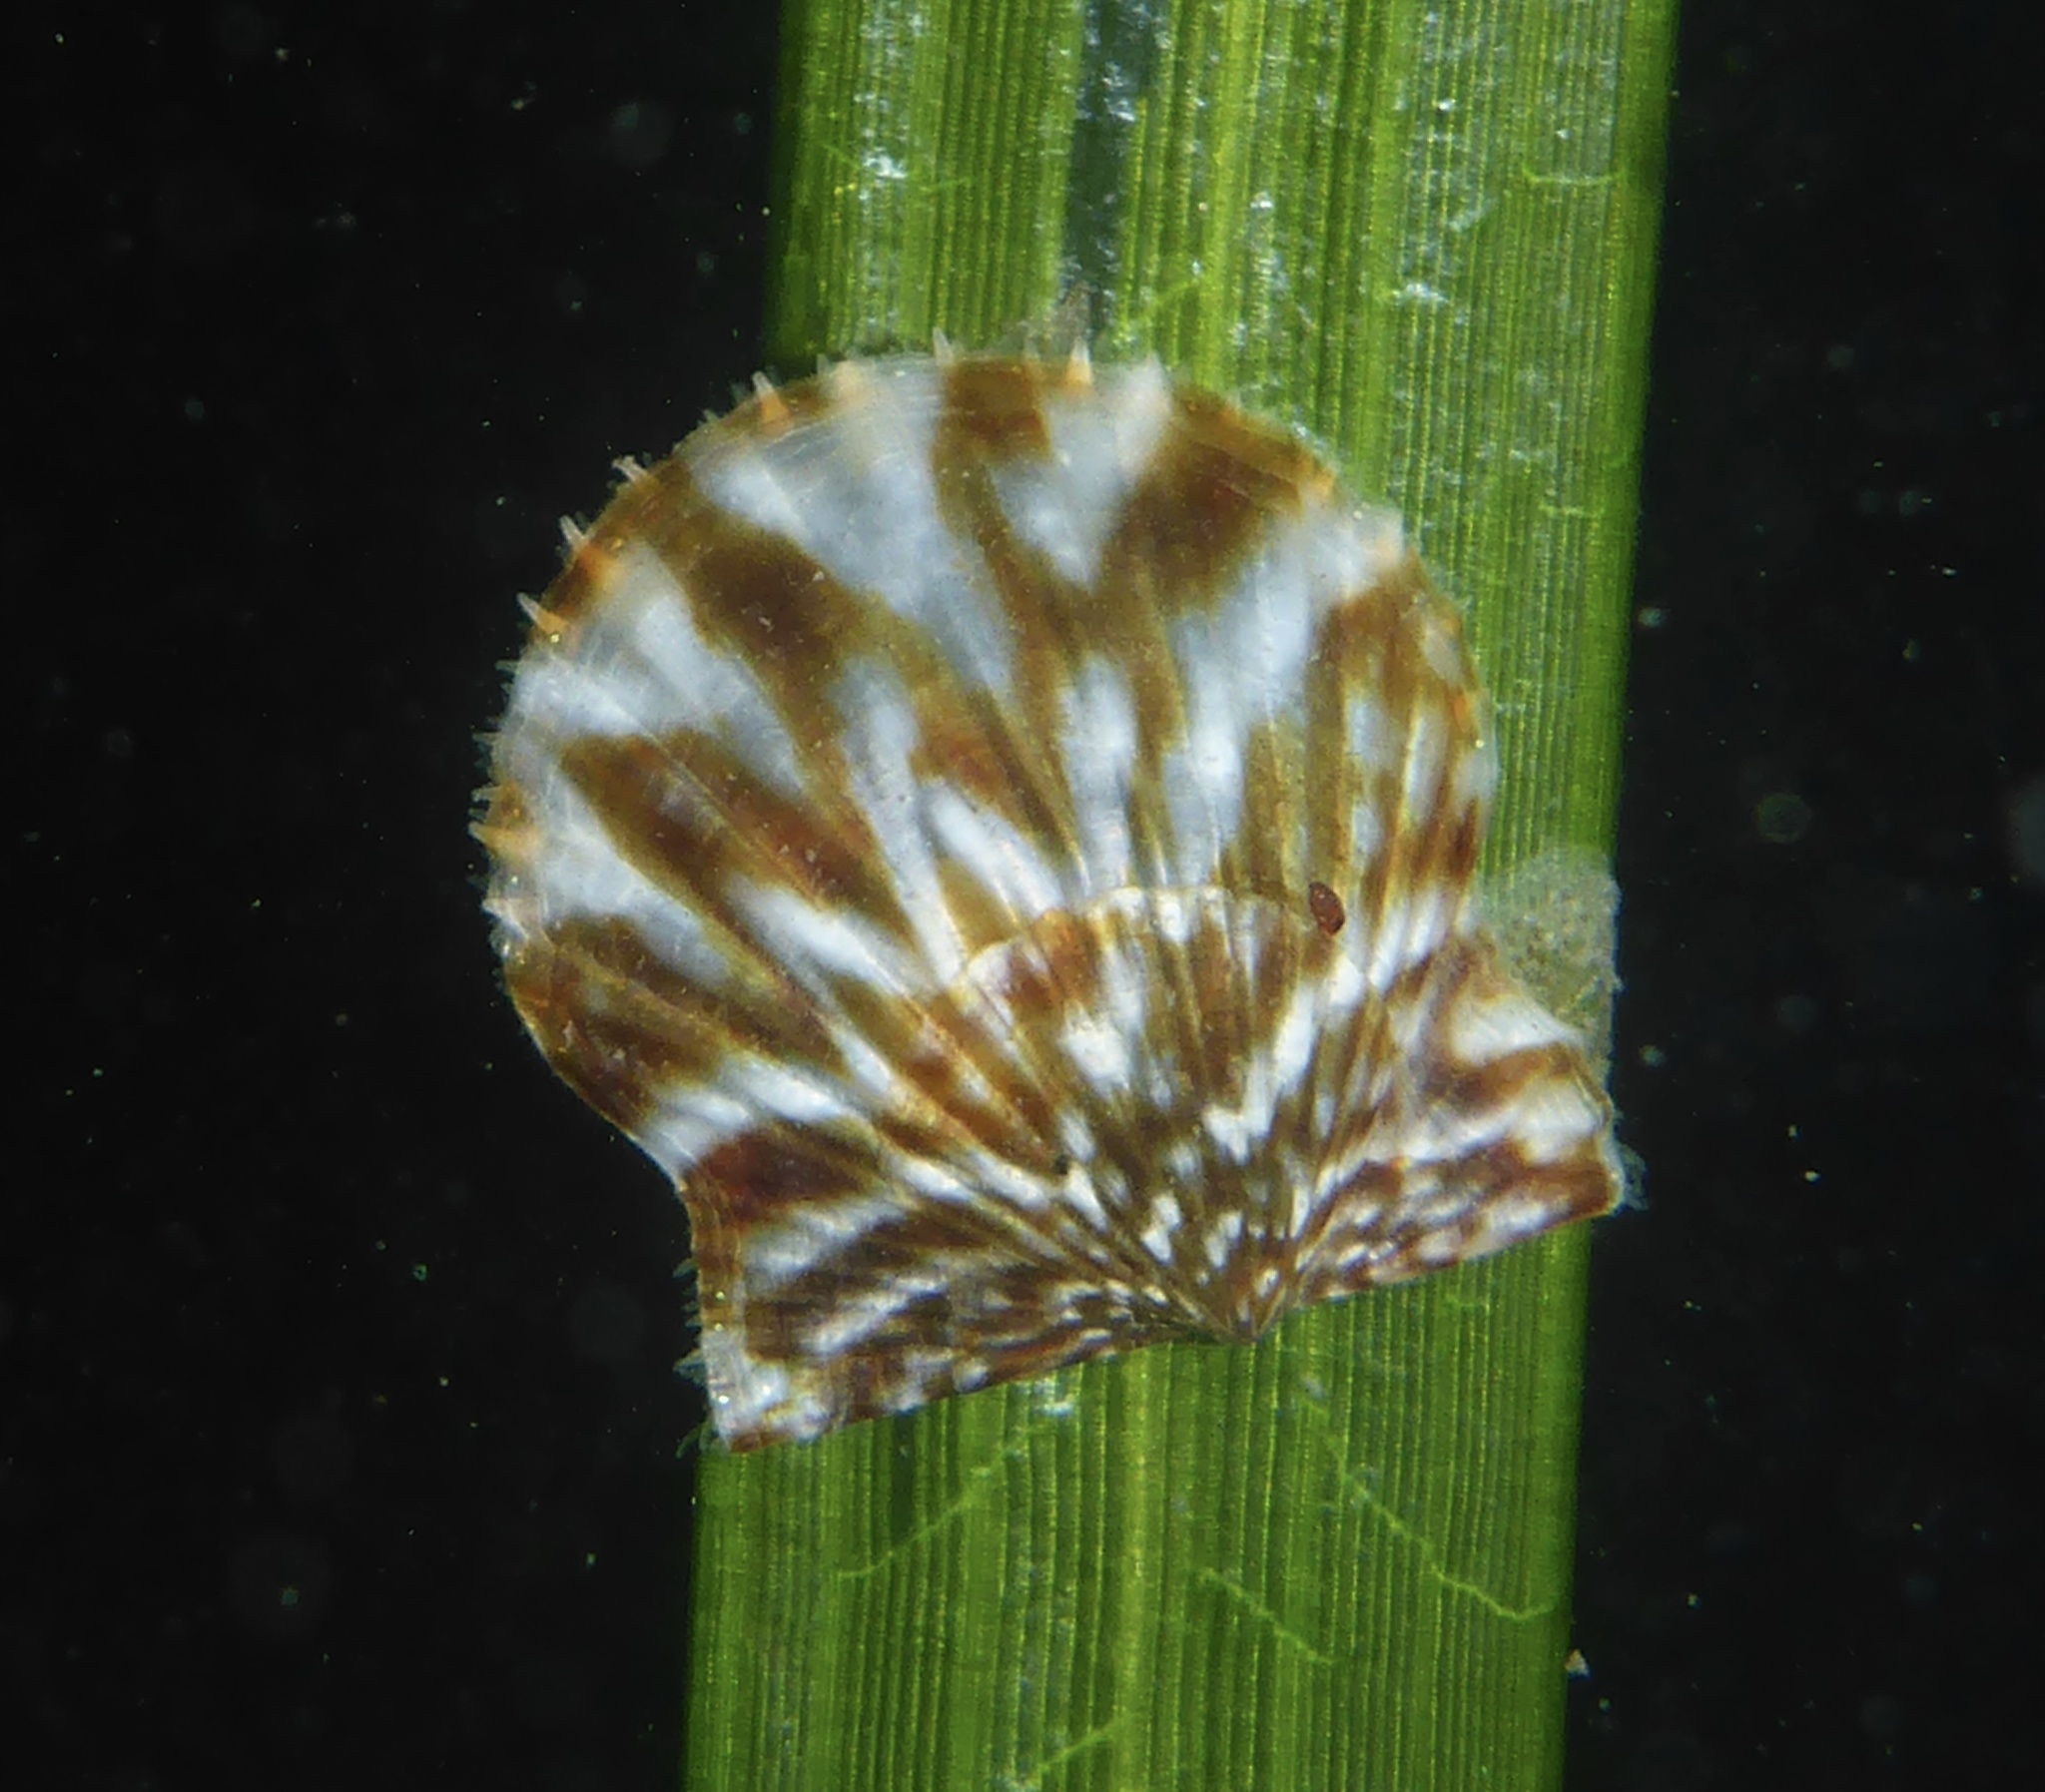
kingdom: Animalia
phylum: Mollusca
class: Bivalvia
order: Pectinida
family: Pectinidae
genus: Leptopecten
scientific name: Leptopecten latiauratus
